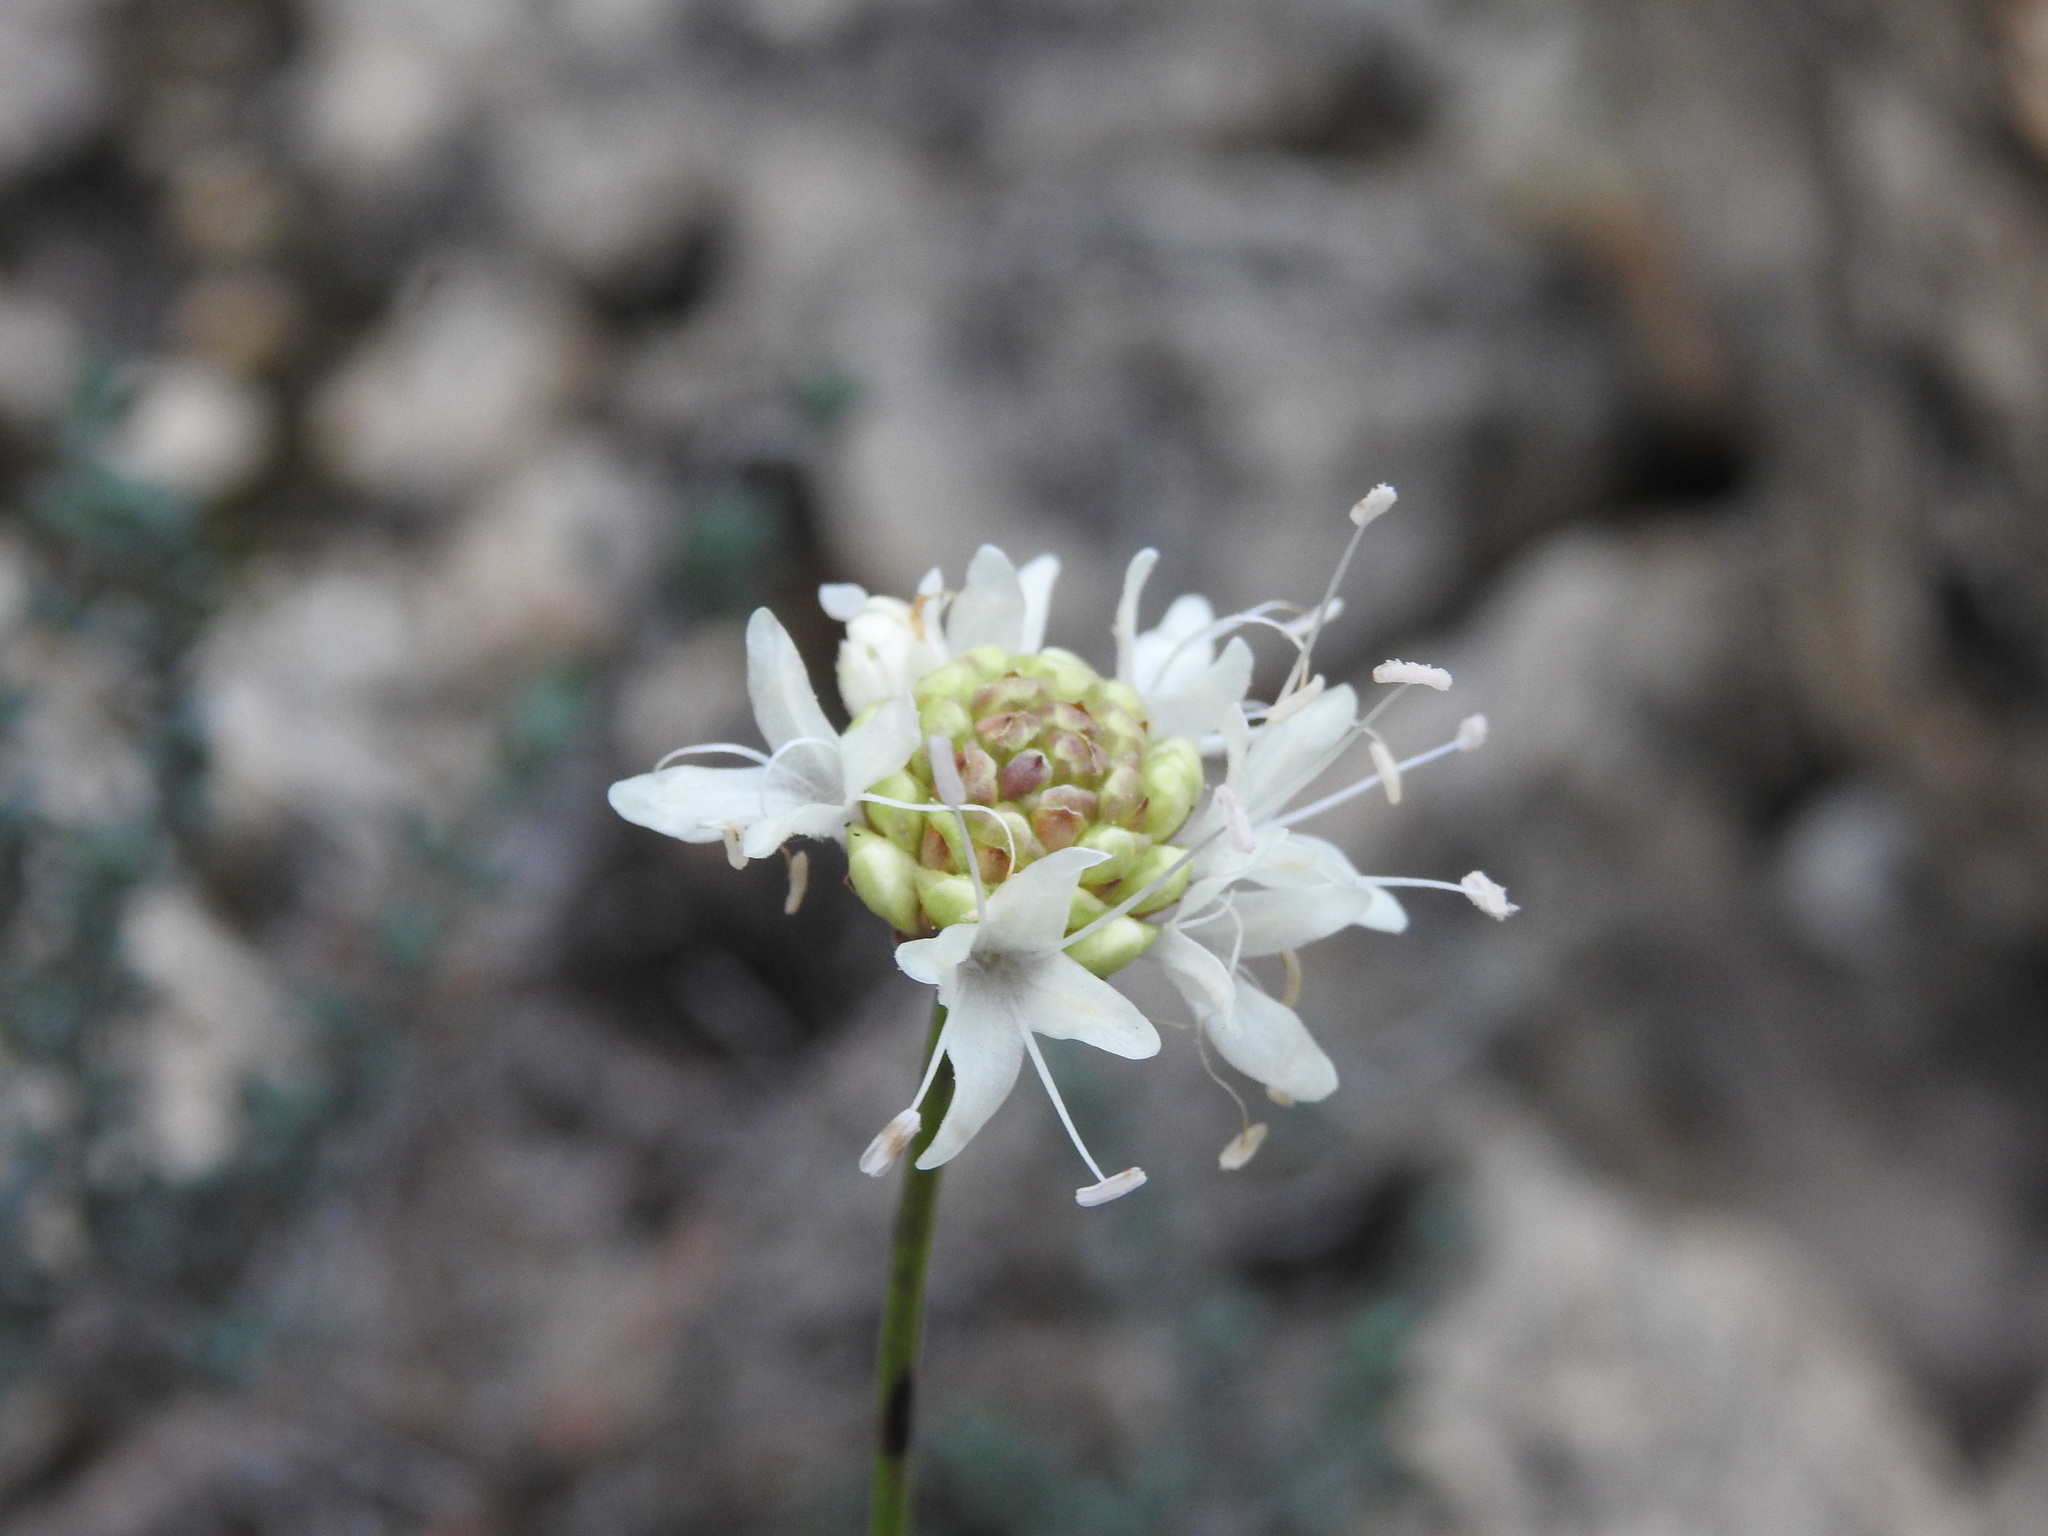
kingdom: Plantae
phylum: Tracheophyta
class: Magnoliopsida
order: Dipsacales
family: Caprifoliaceae
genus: Cephalaria
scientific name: Cephalaria leucantha
